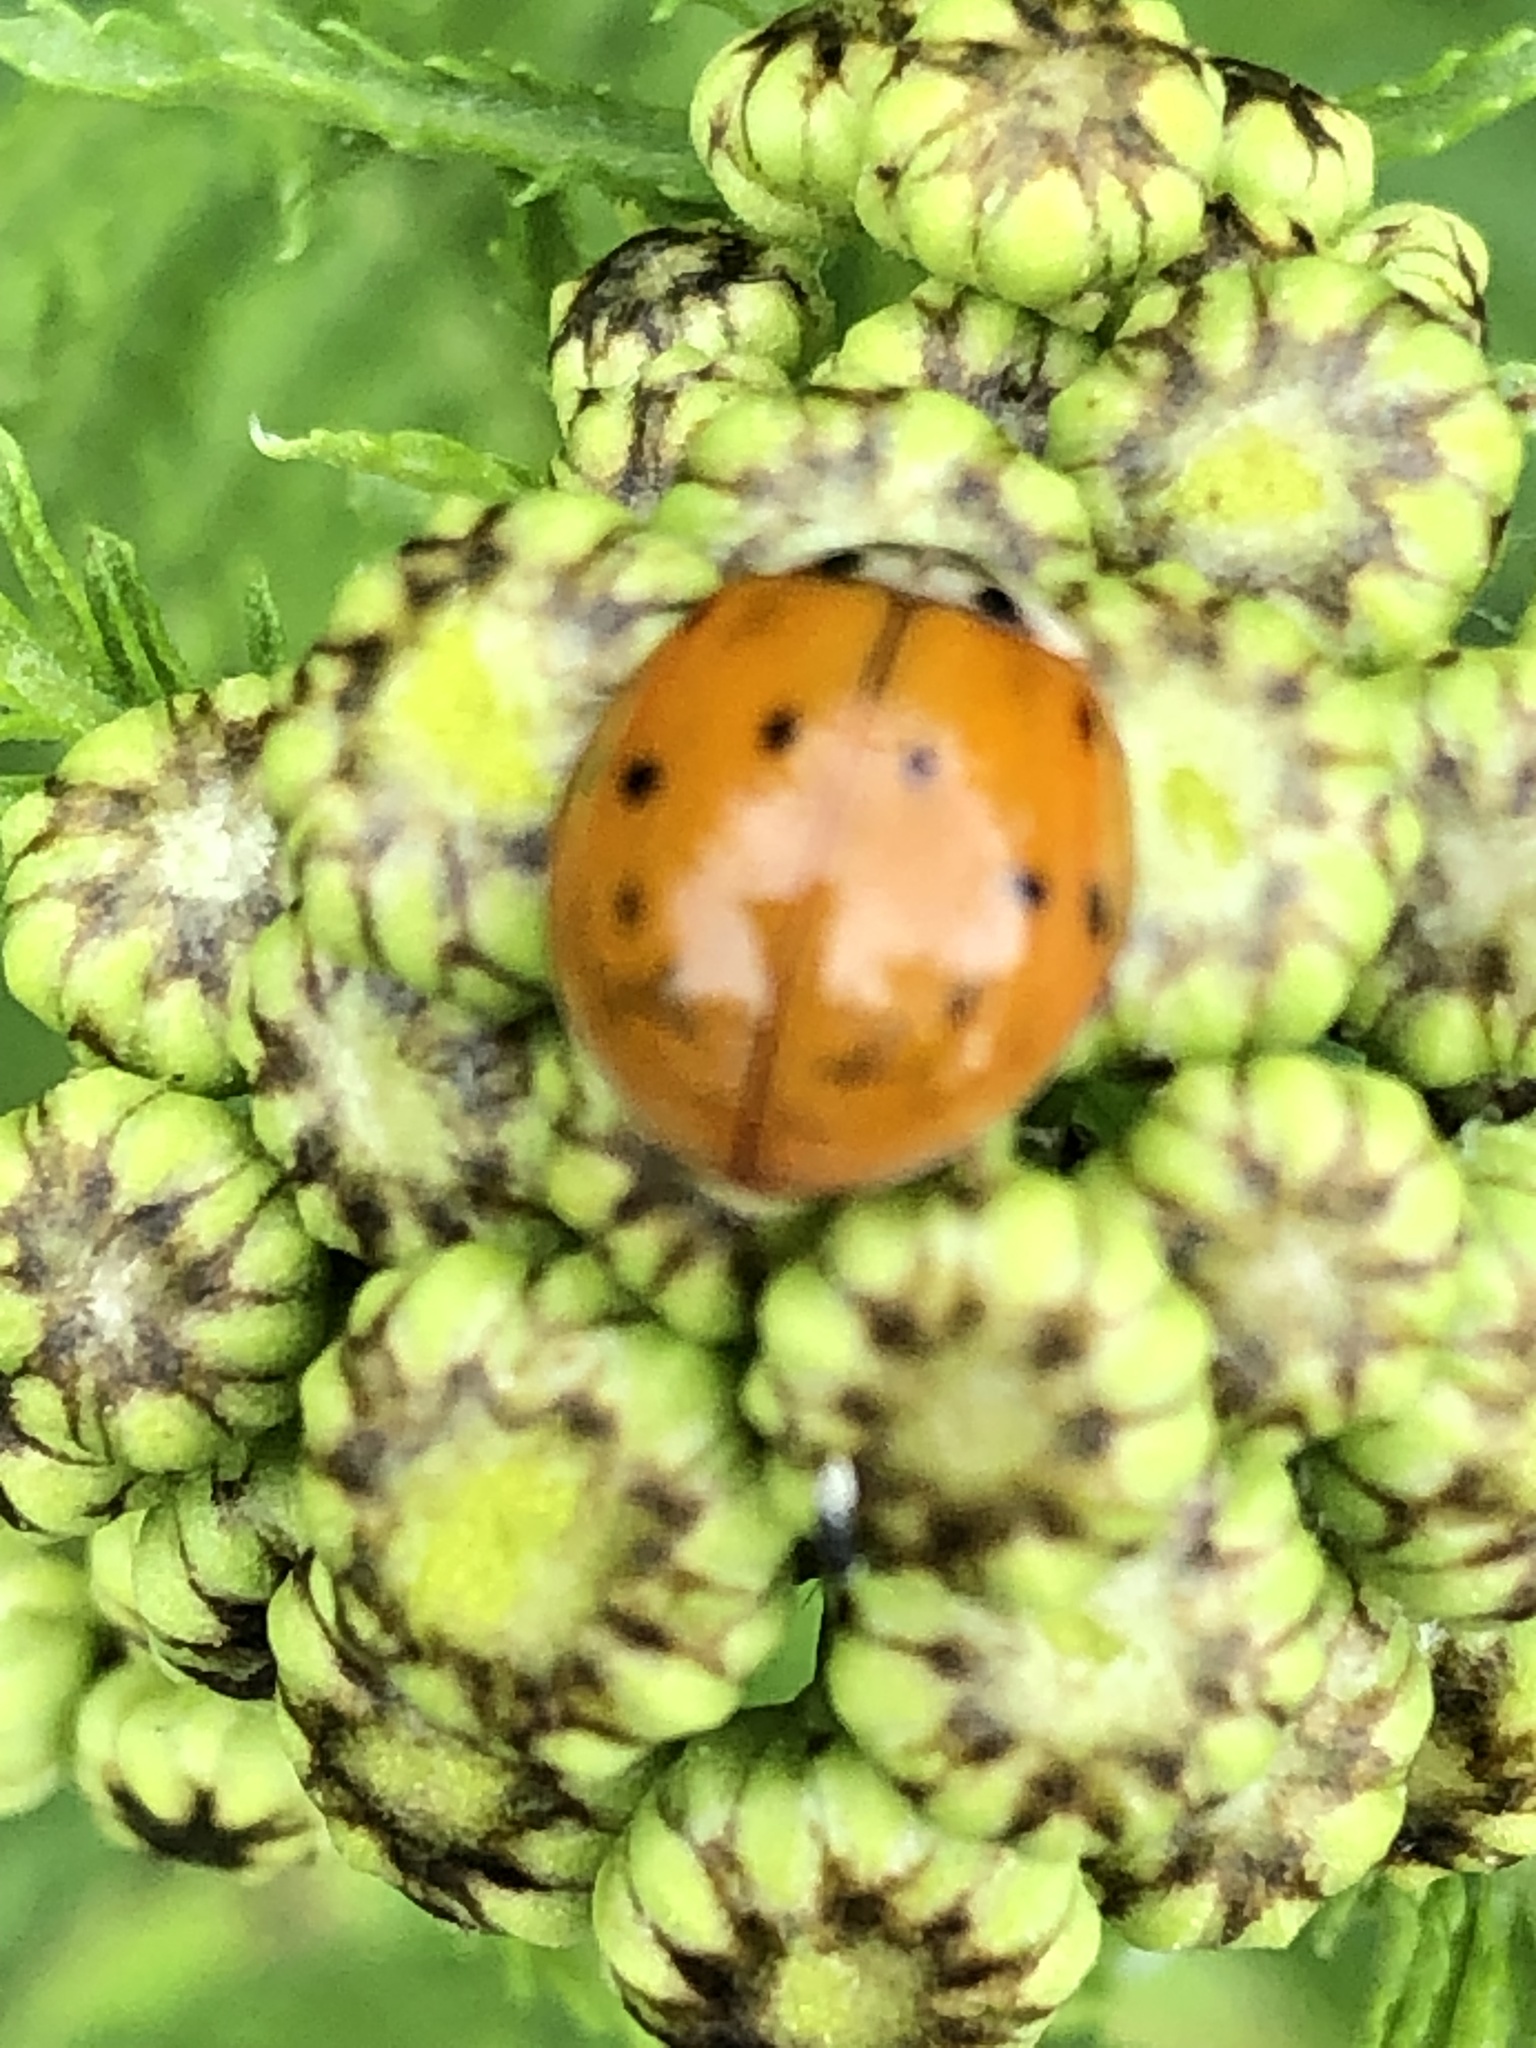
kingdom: Animalia
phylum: Arthropoda
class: Insecta
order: Coleoptera
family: Coccinellidae
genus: Harmonia
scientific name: Harmonia axyridis
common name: Harlequin ladybird
